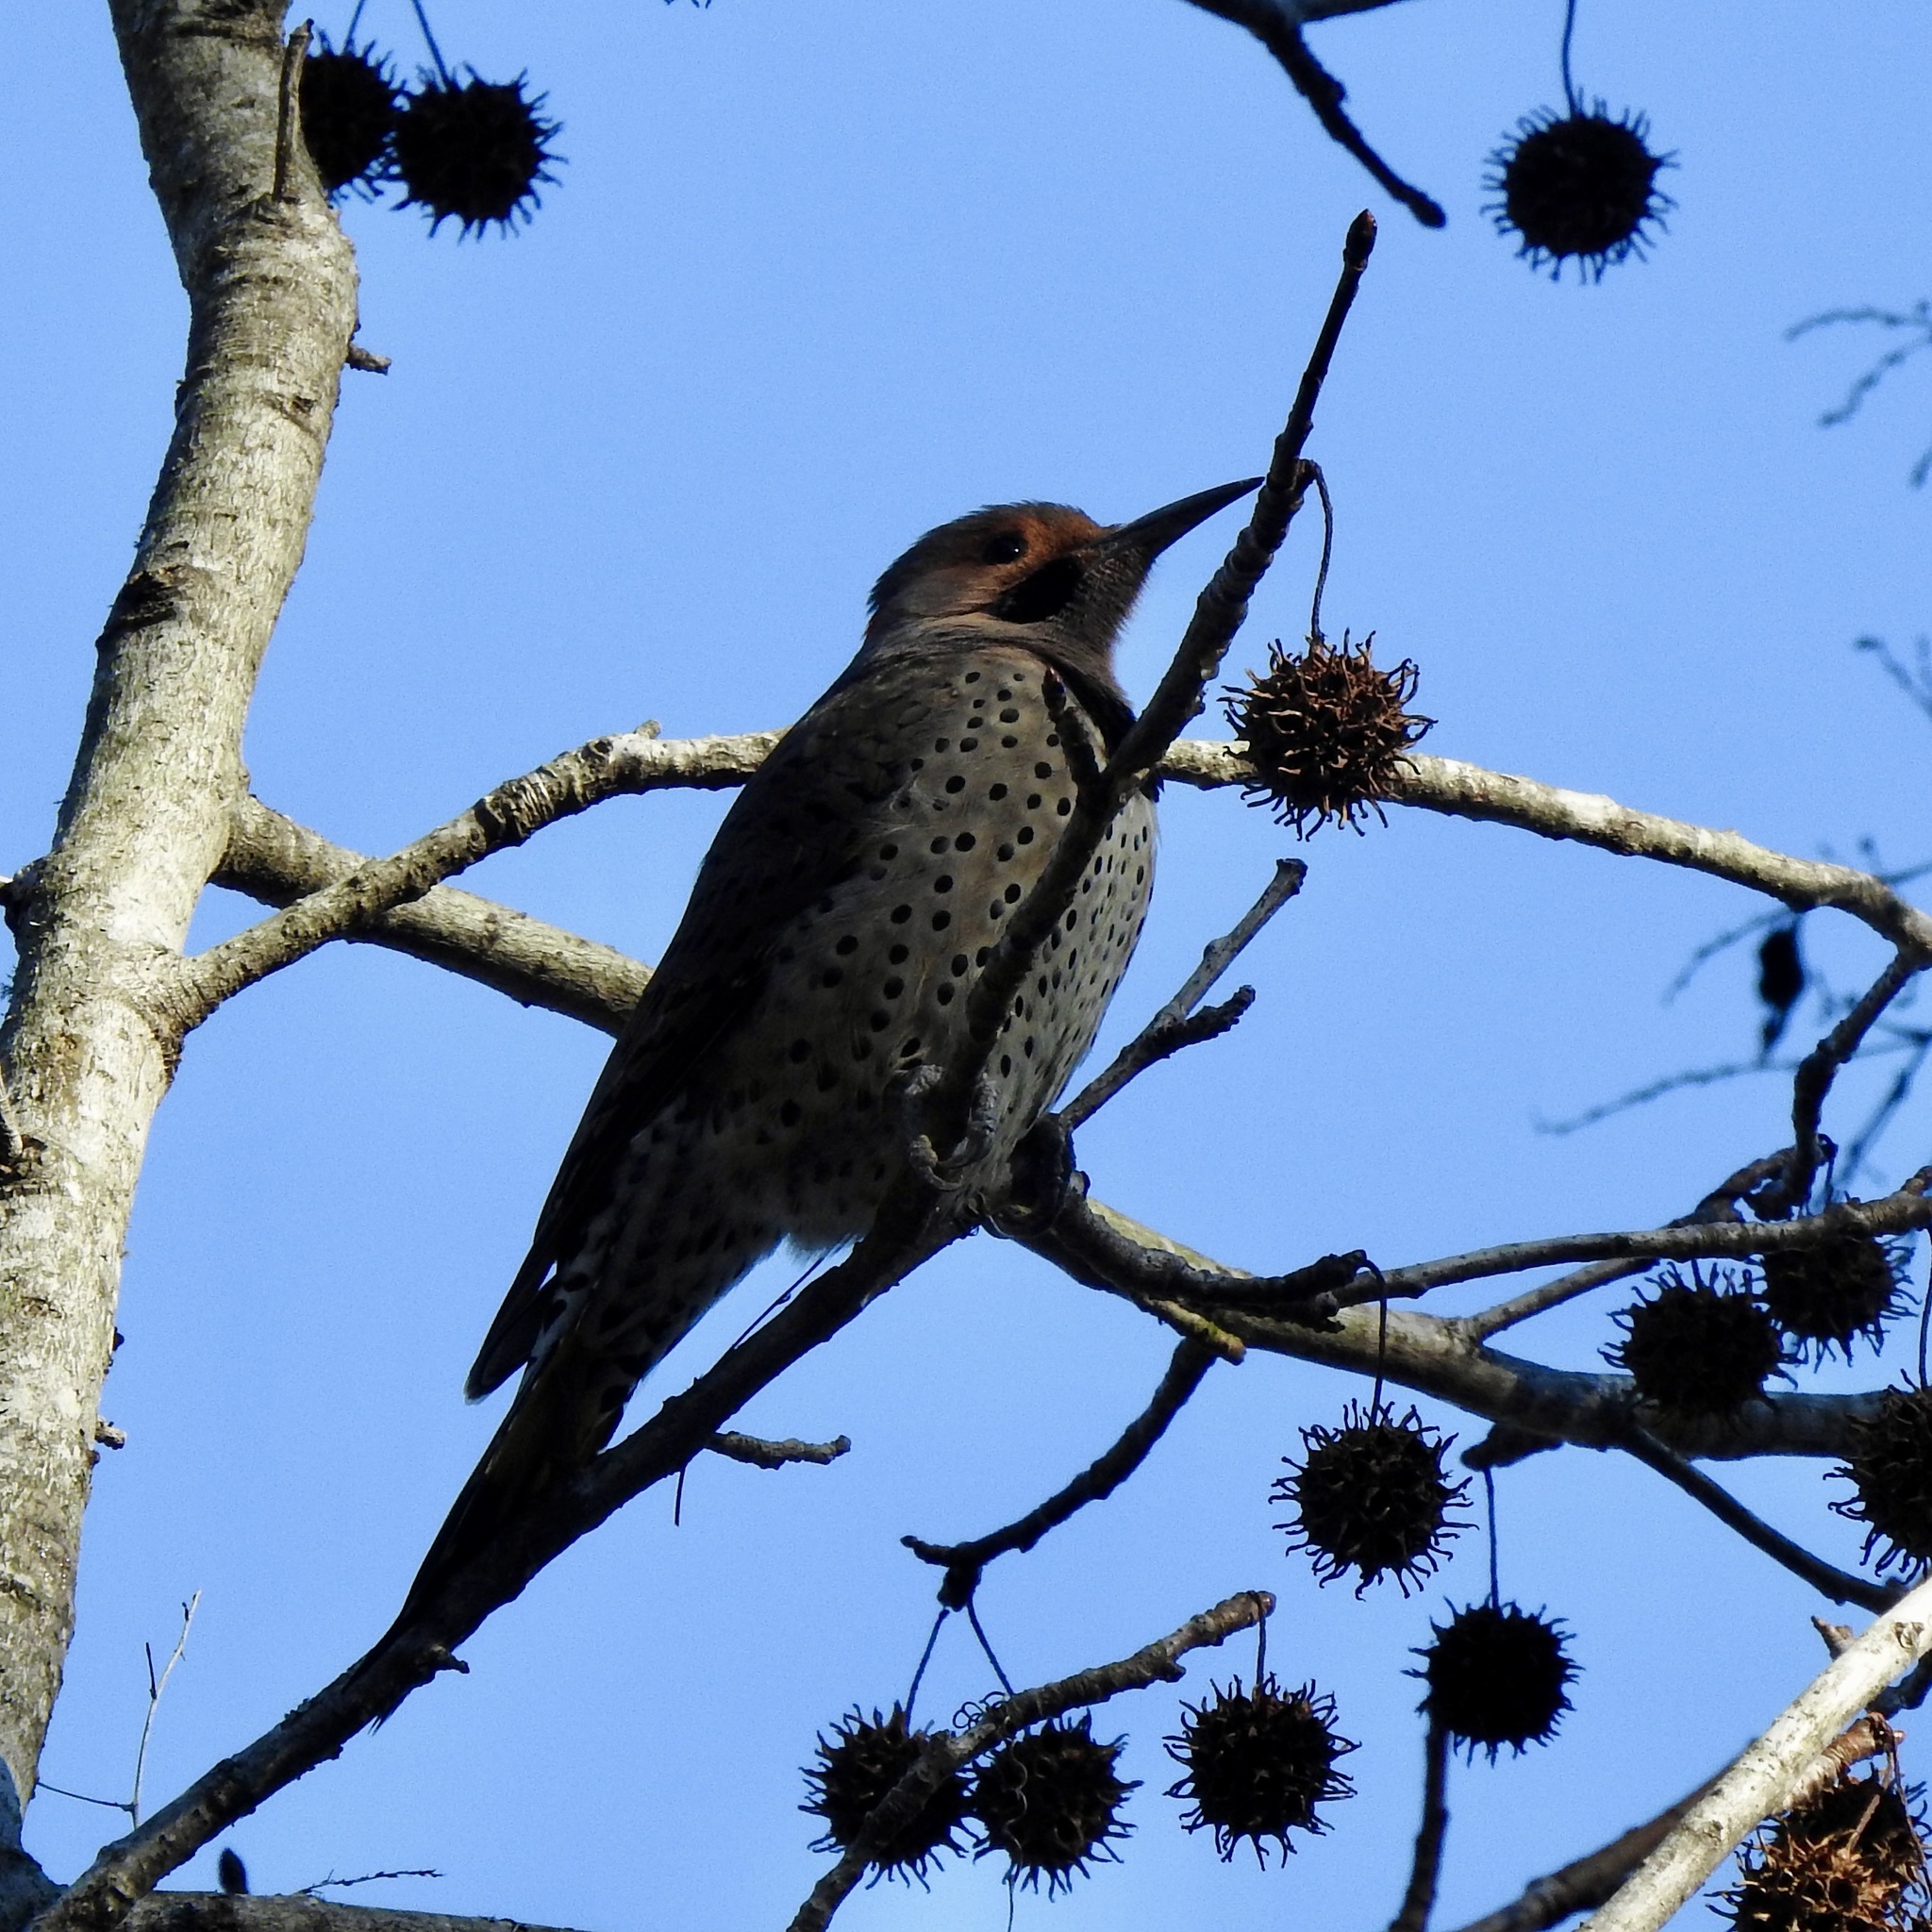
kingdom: Animalia
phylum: Chordata
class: Aves
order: Piciformes
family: Picidae
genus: Colaptes
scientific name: Colaptes auratus
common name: Northern flicker
